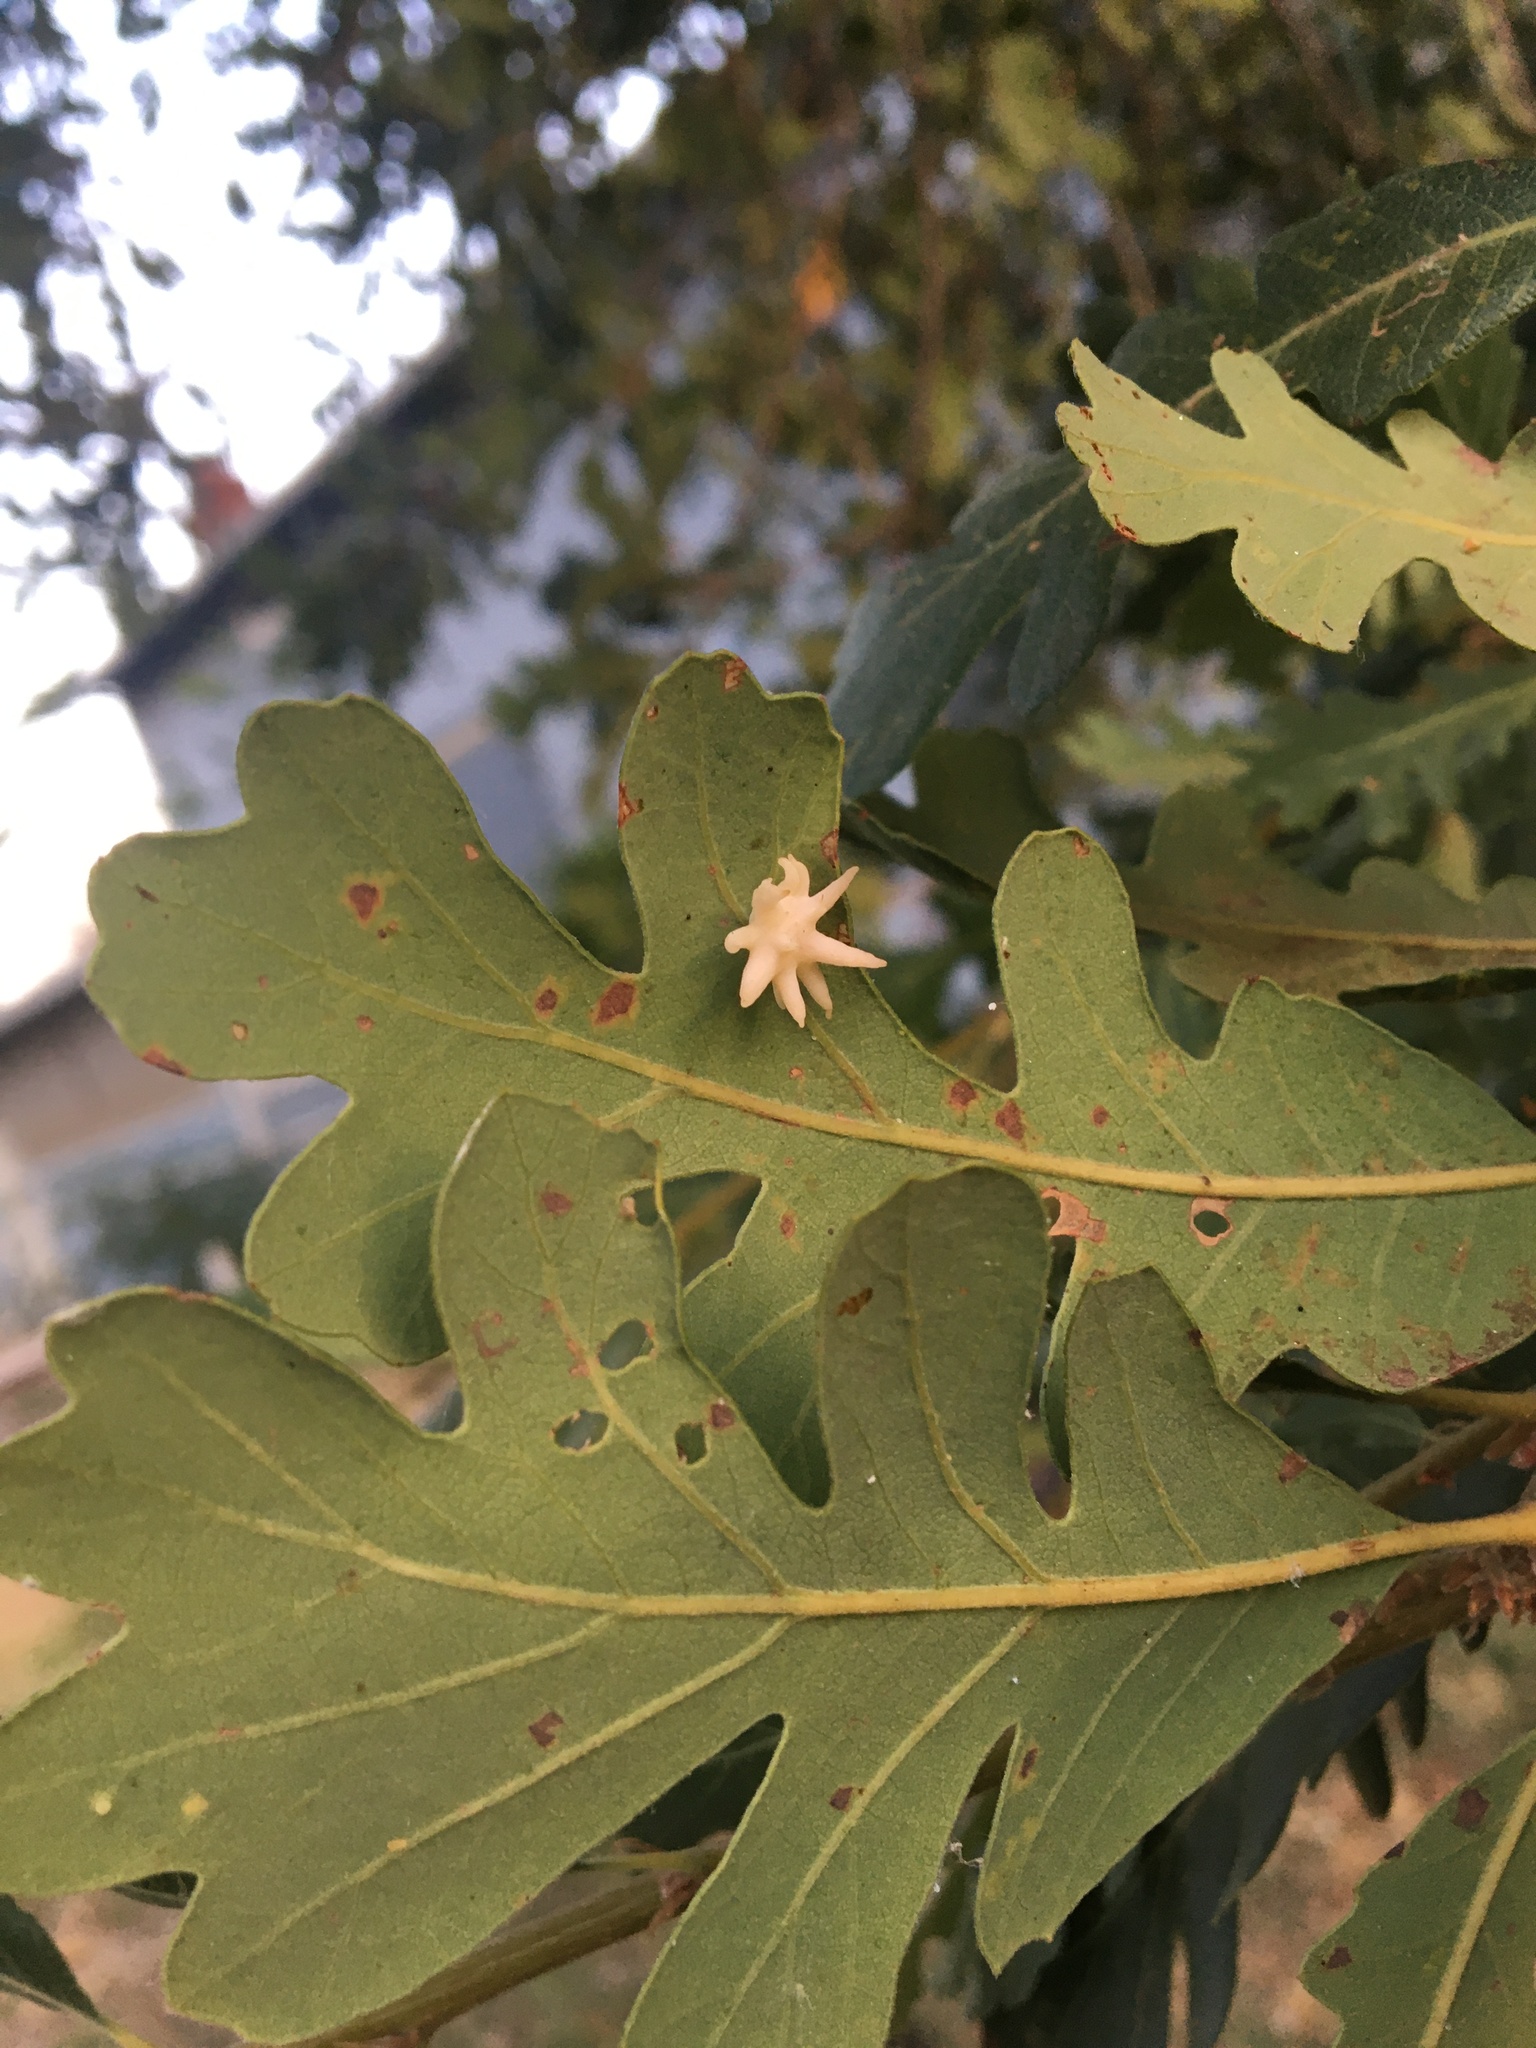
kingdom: Animalia
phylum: Arthropoda
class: Insecta
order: Hymenoptera
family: Cynipidae
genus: Cynips
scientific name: Cynips douglasi
